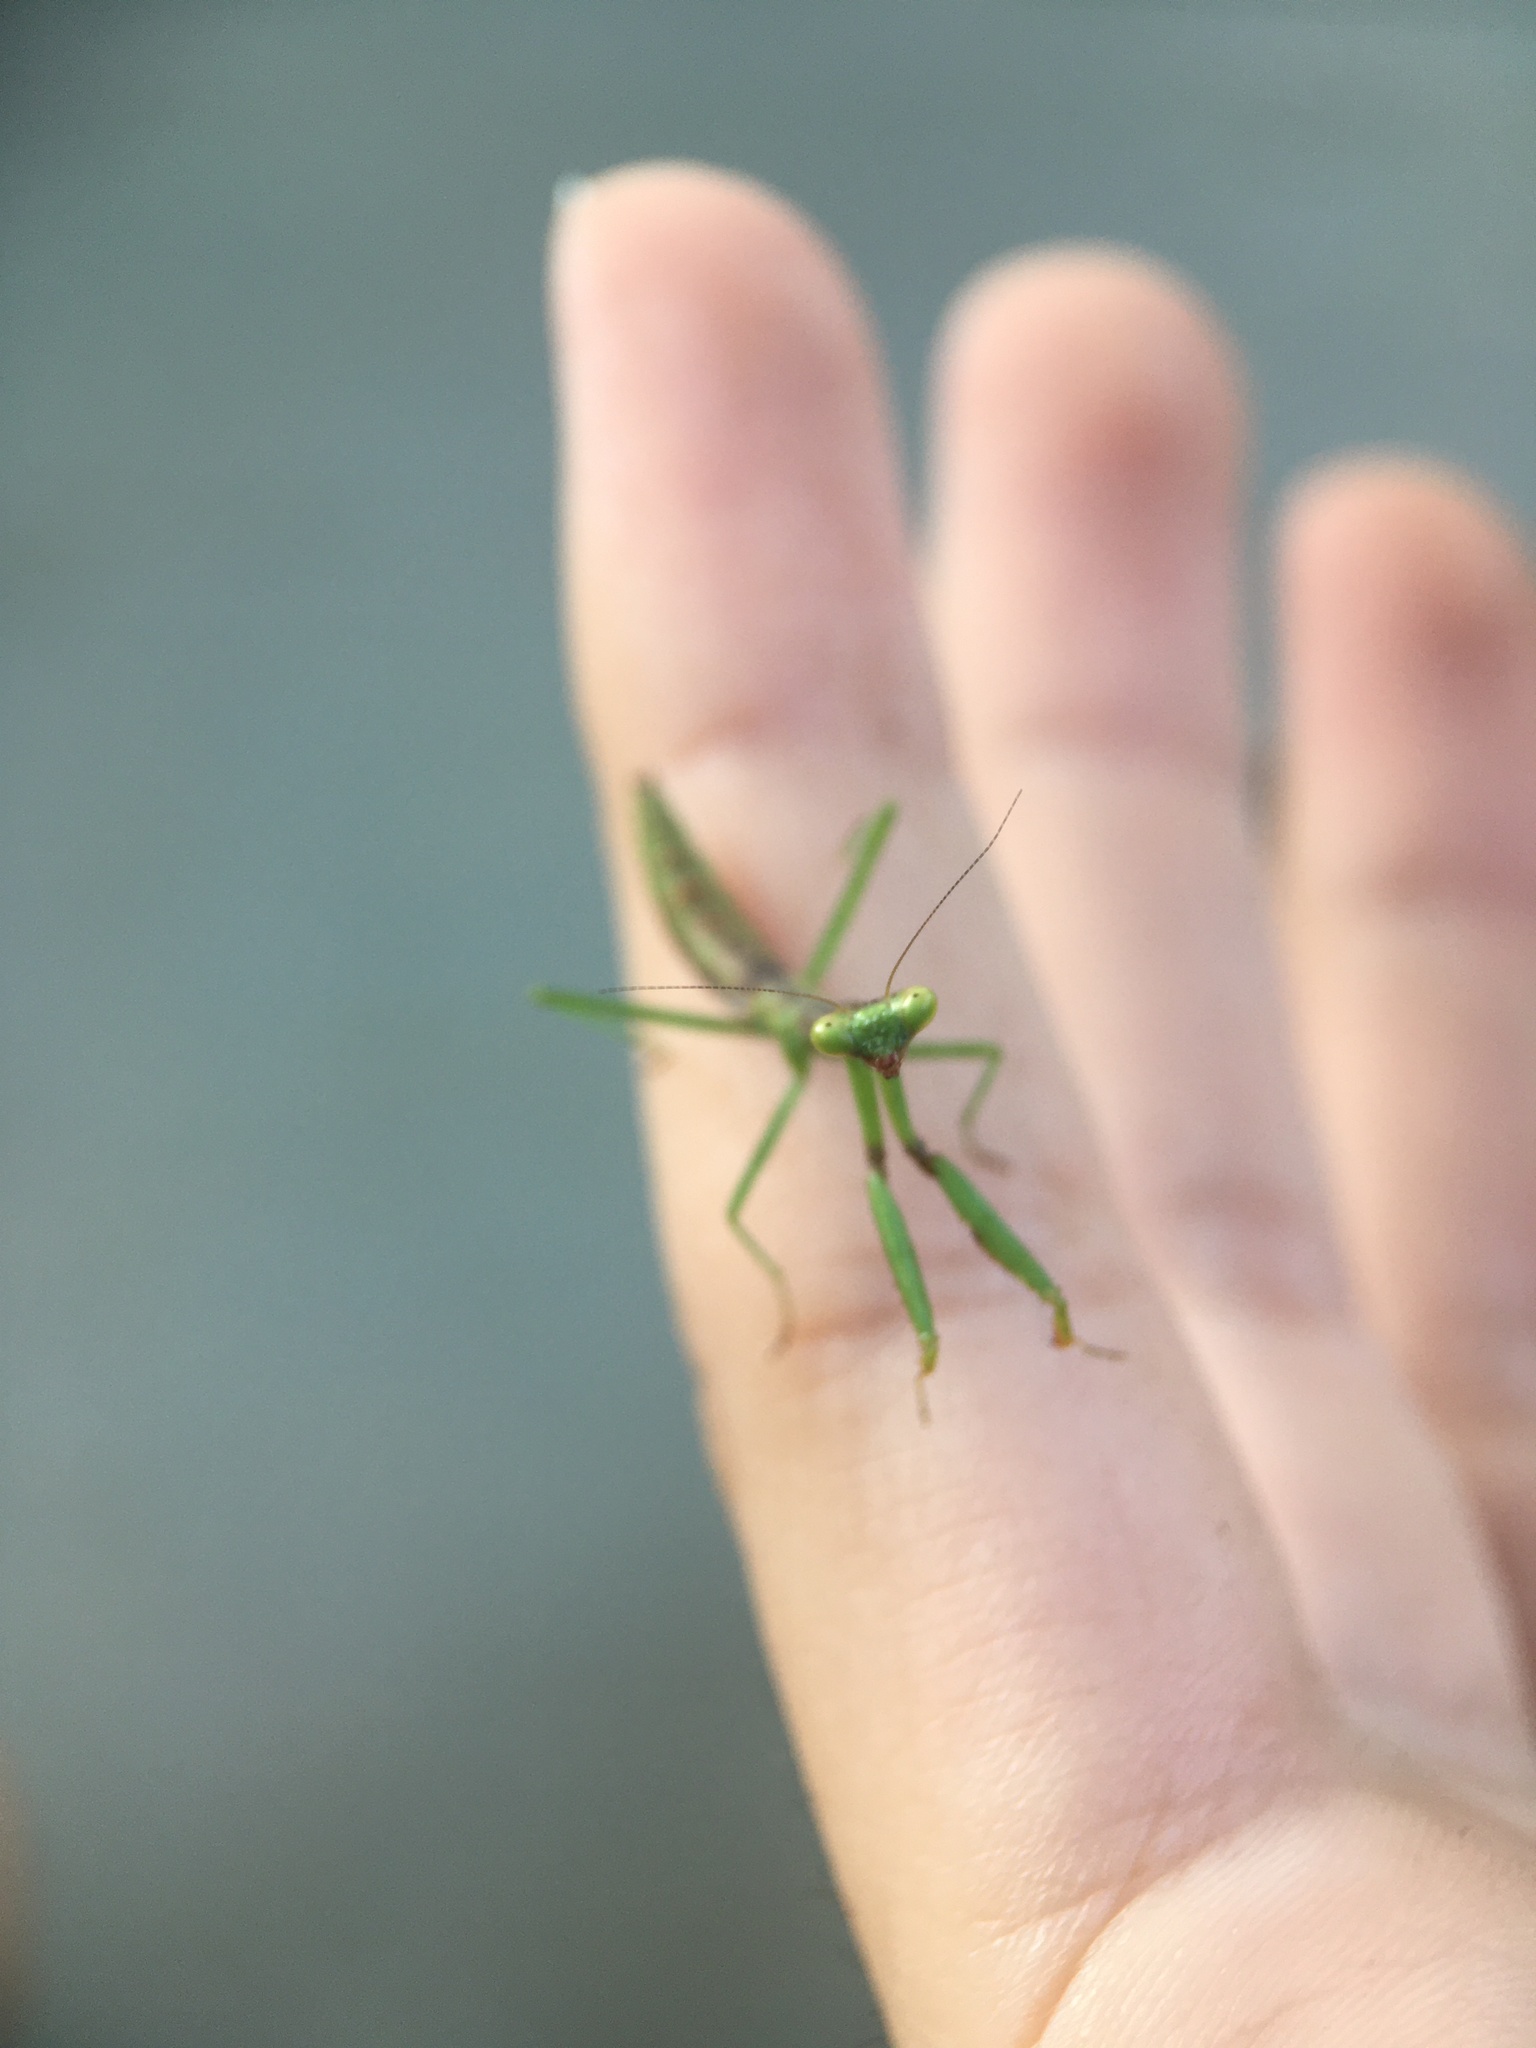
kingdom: Animalia
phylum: Arthropoda
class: Insecta
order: Mantodea
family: Mantidae
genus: Stagmomantis
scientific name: Stagmomantis carolina
